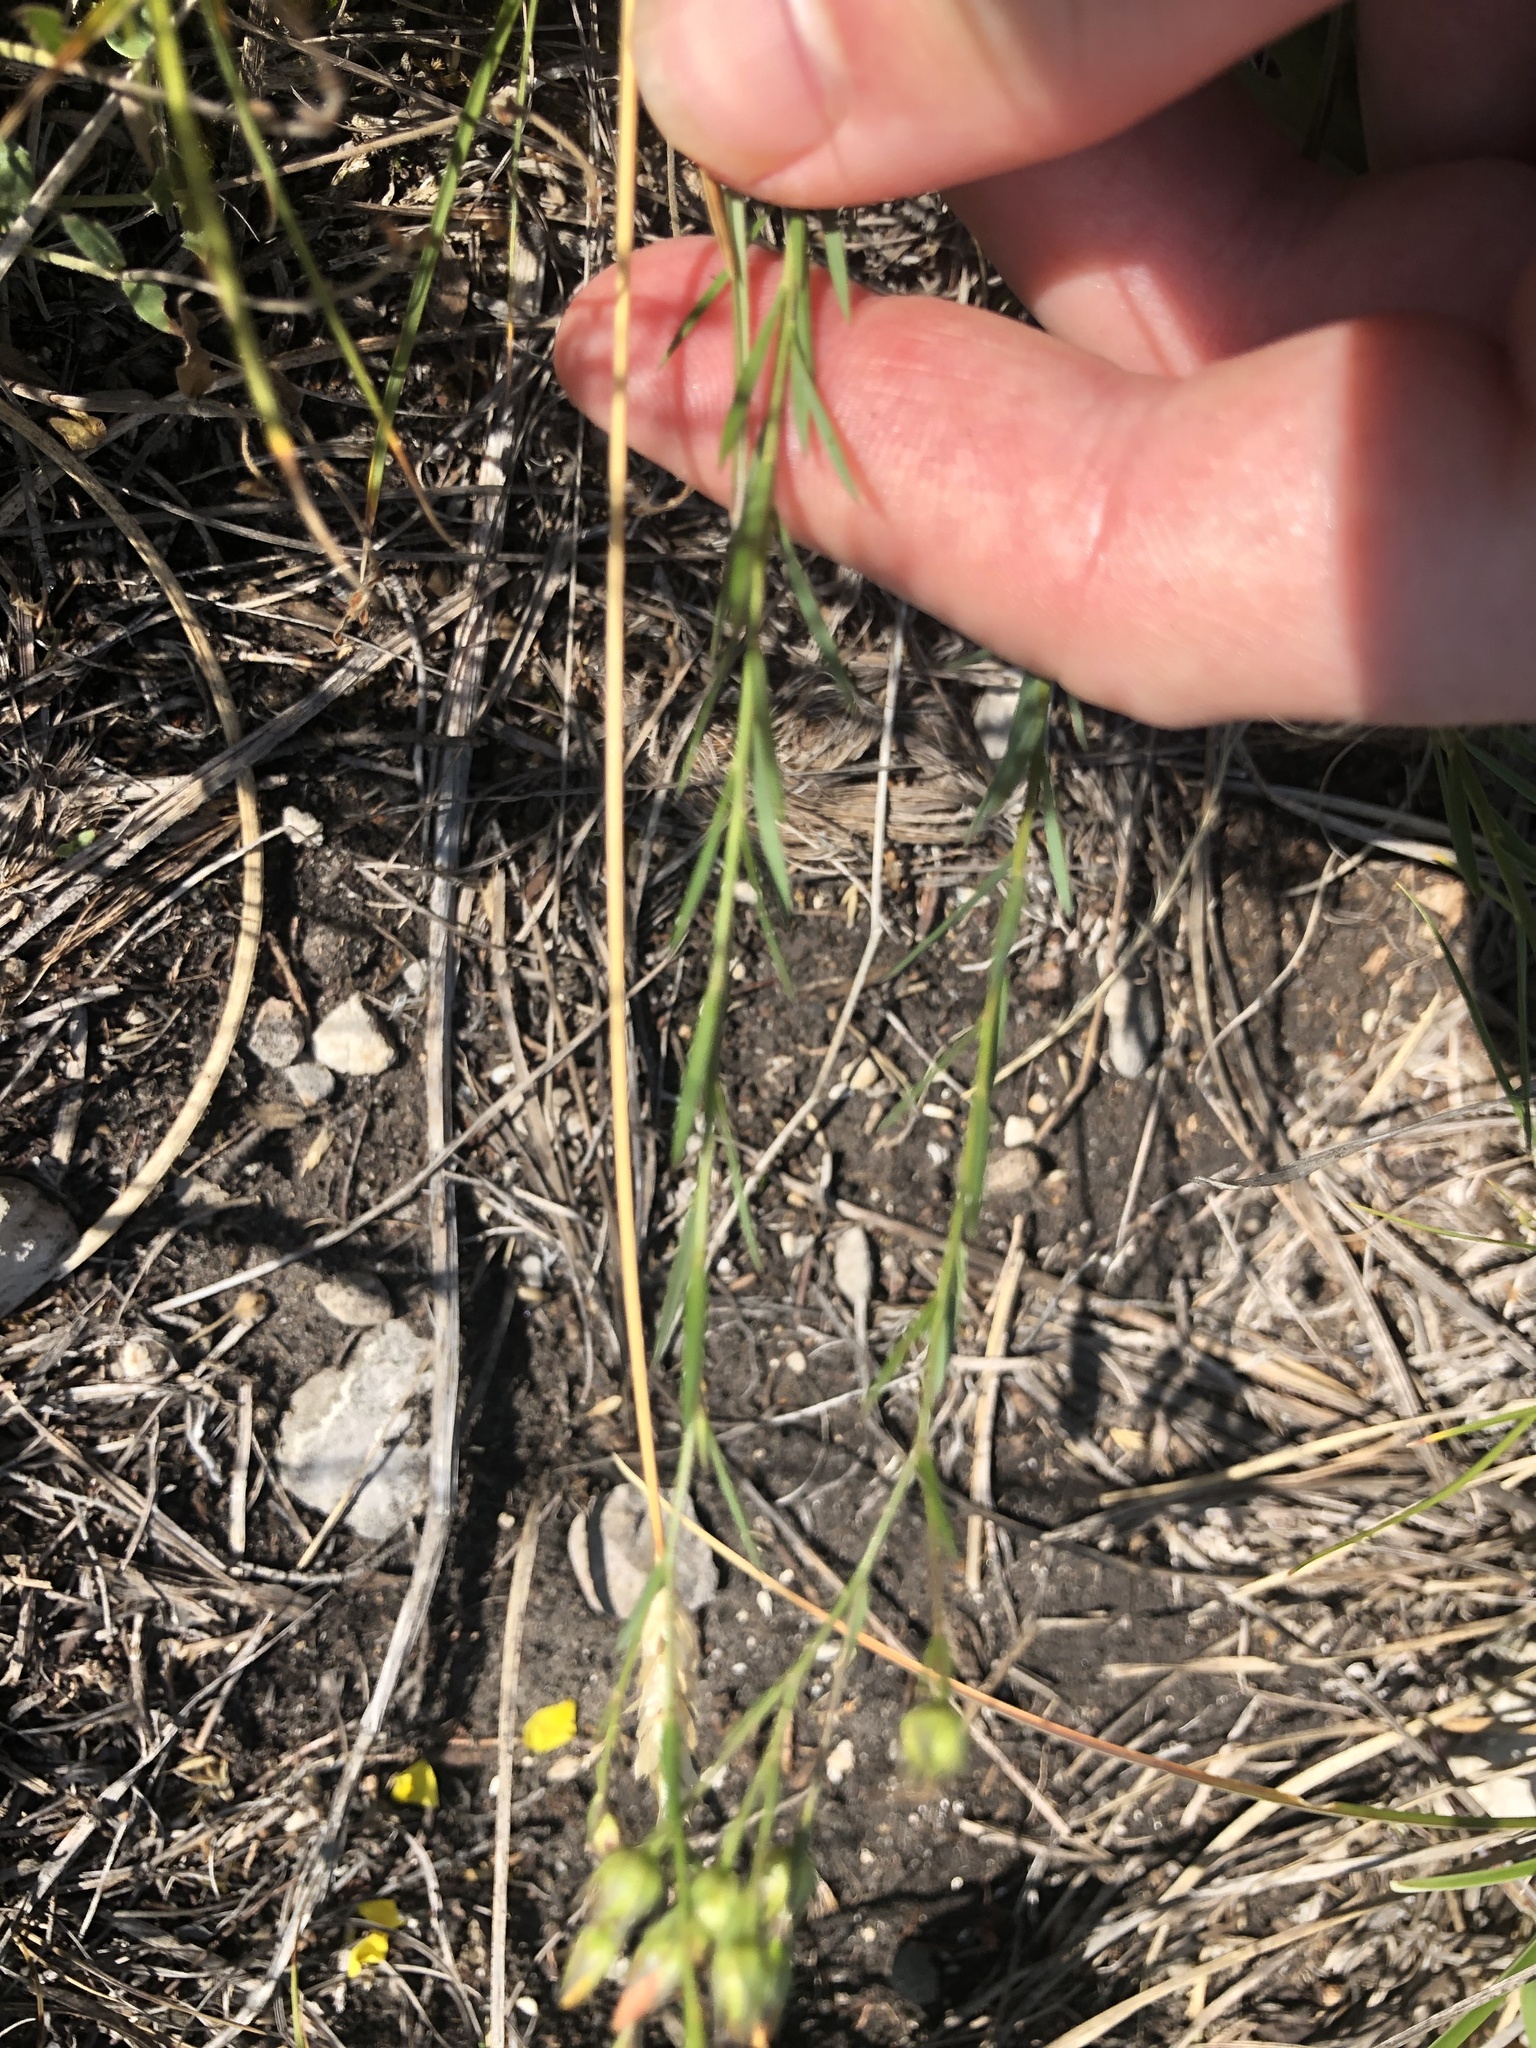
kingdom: Plantae
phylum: Tracheophyta
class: Magnoliopsida
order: Malpighiales
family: Linaceae
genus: Linum
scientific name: Linum tenuifolium
